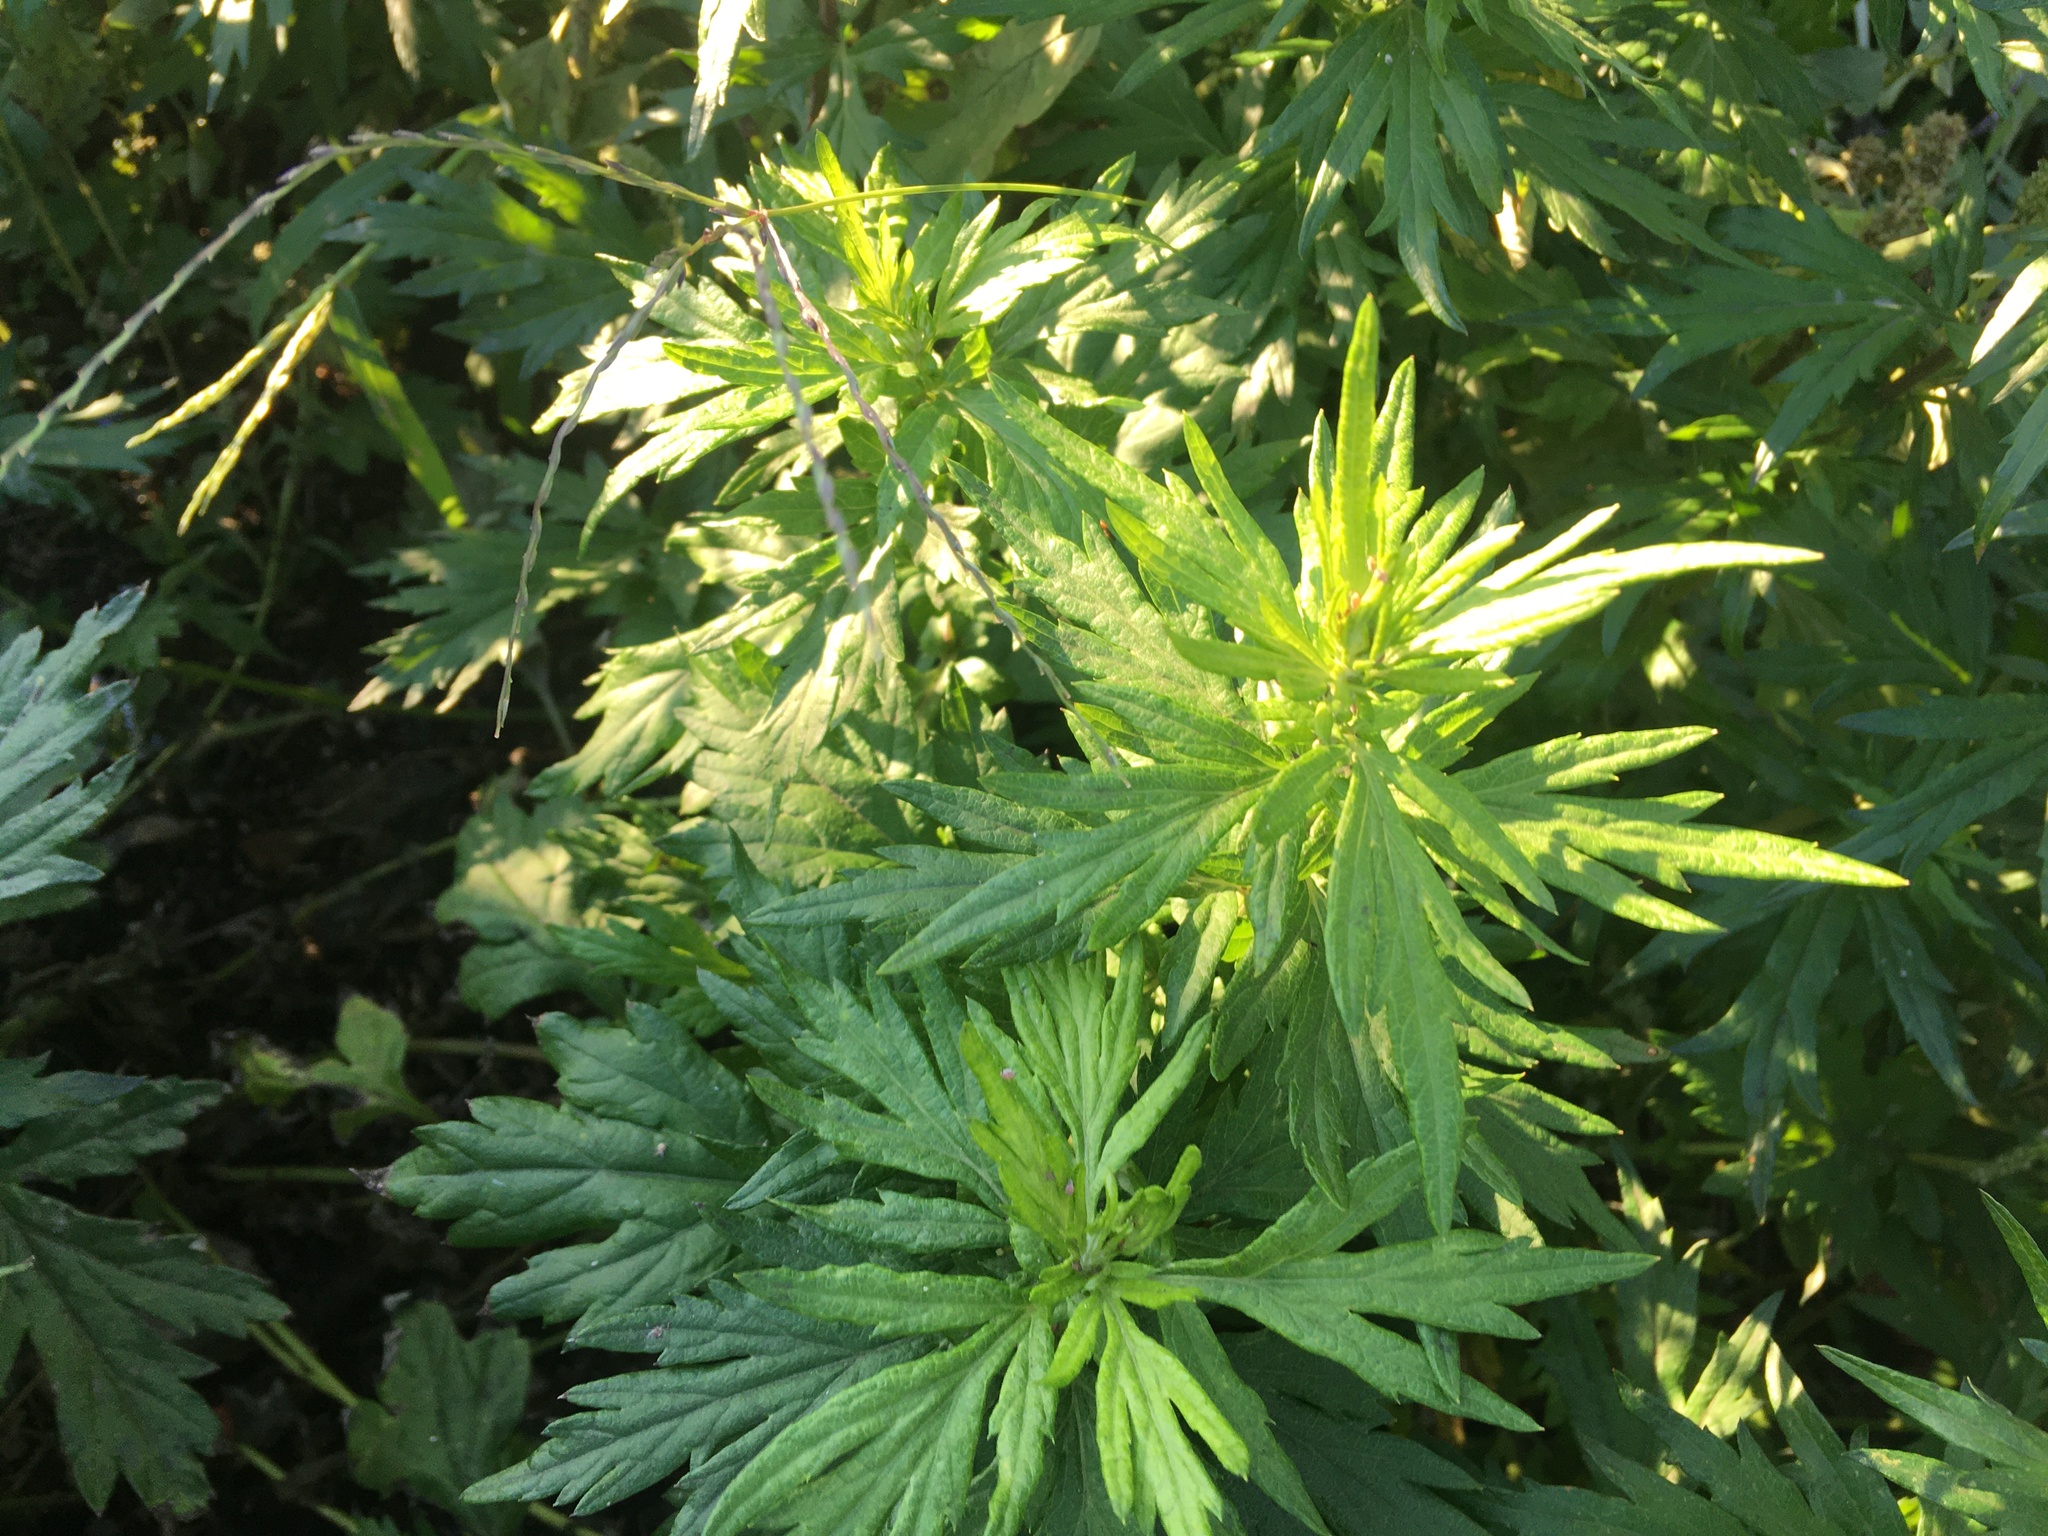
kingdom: Plantae
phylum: Tracheophyta
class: Magnoliopsida
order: Asterales
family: Asteraceae
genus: Artemisia
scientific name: Artemisia vulgaris
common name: Mugwort
